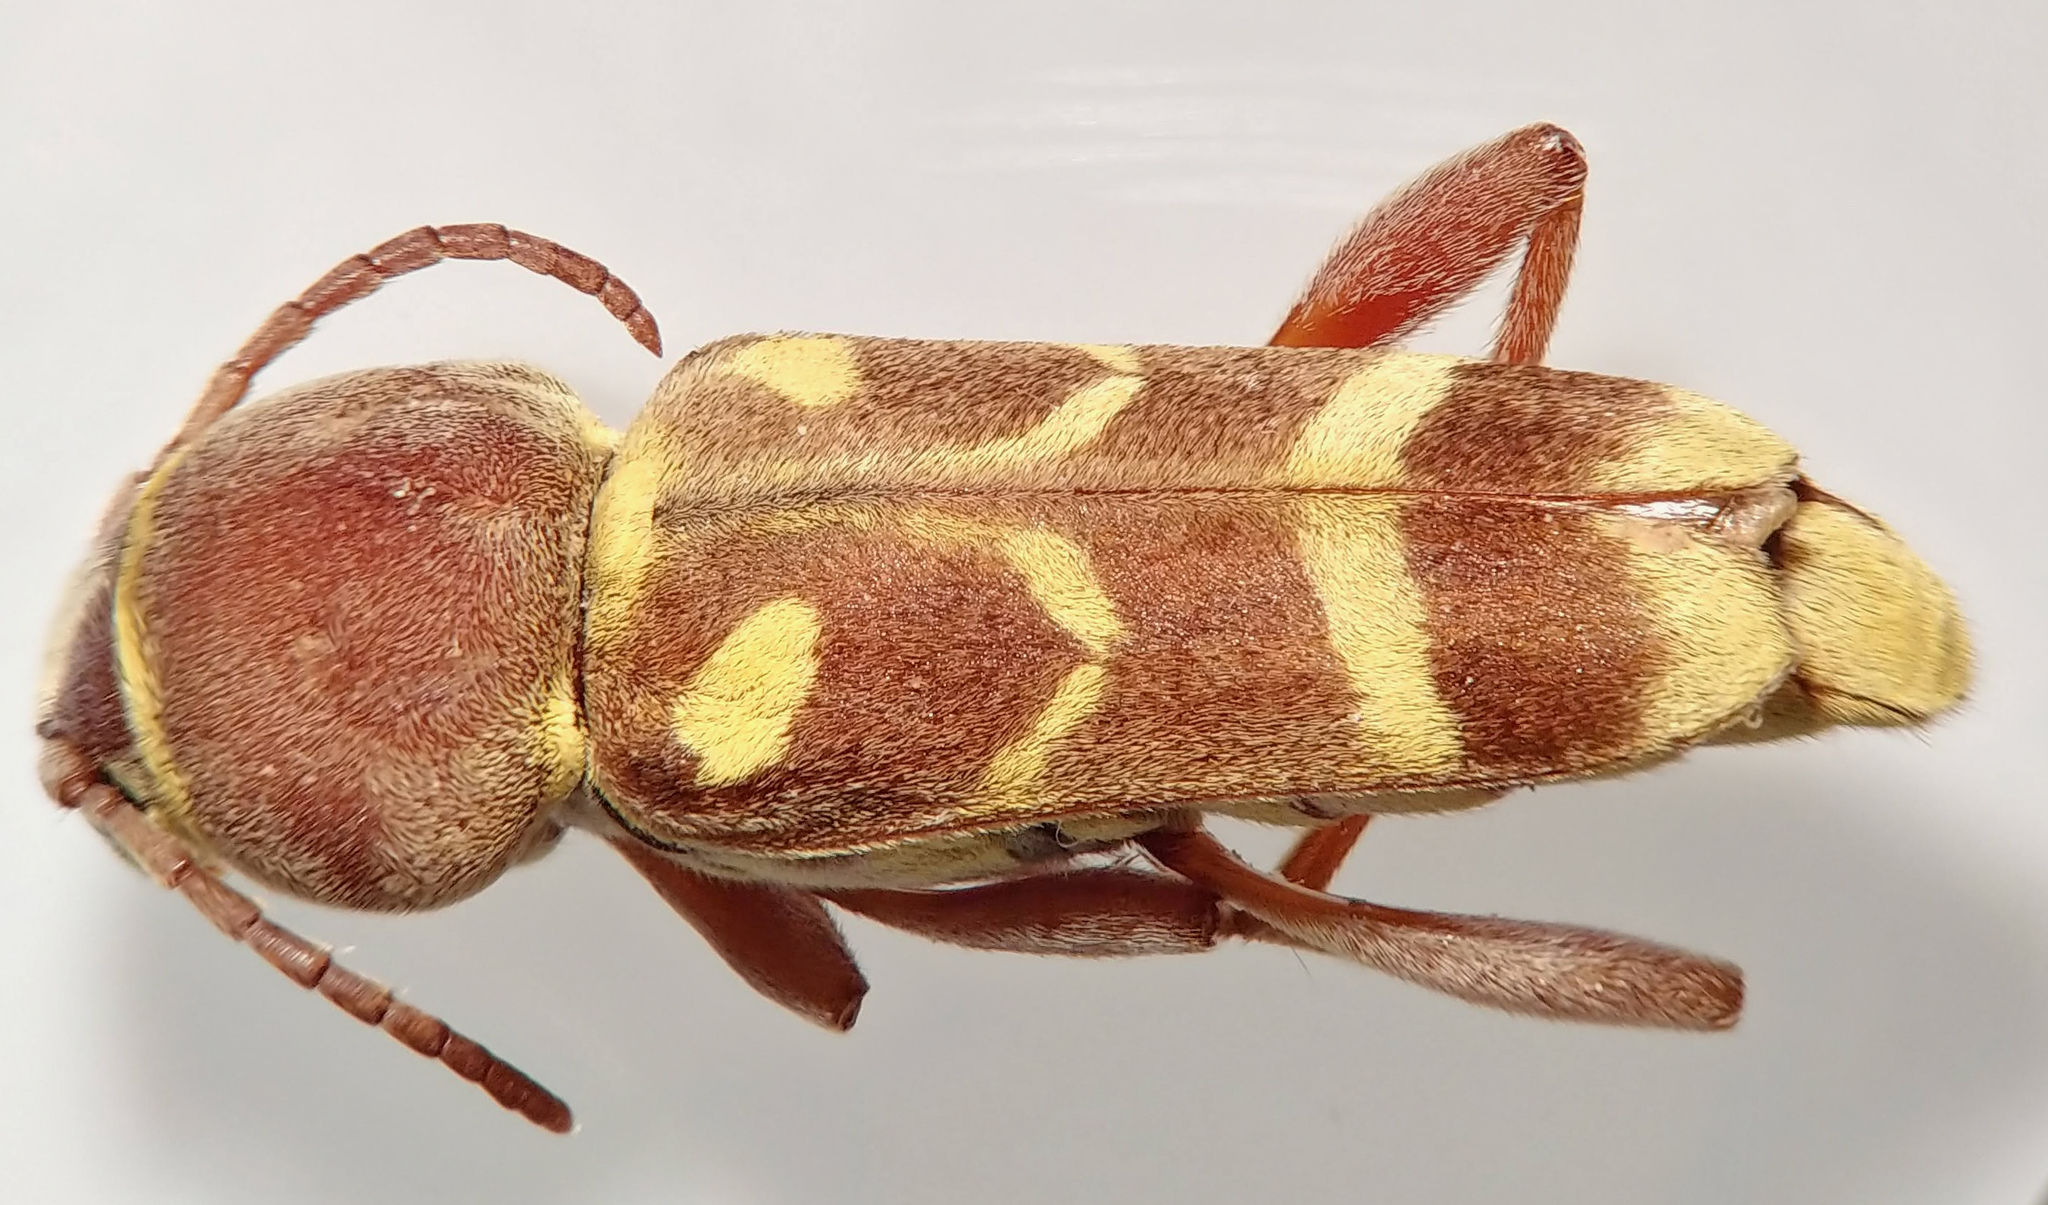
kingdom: Animalia
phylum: Arthropoda
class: Insecta
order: Coleoptera
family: Cerambycidae
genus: Xylotrechus
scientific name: Xylotrechus insignis
